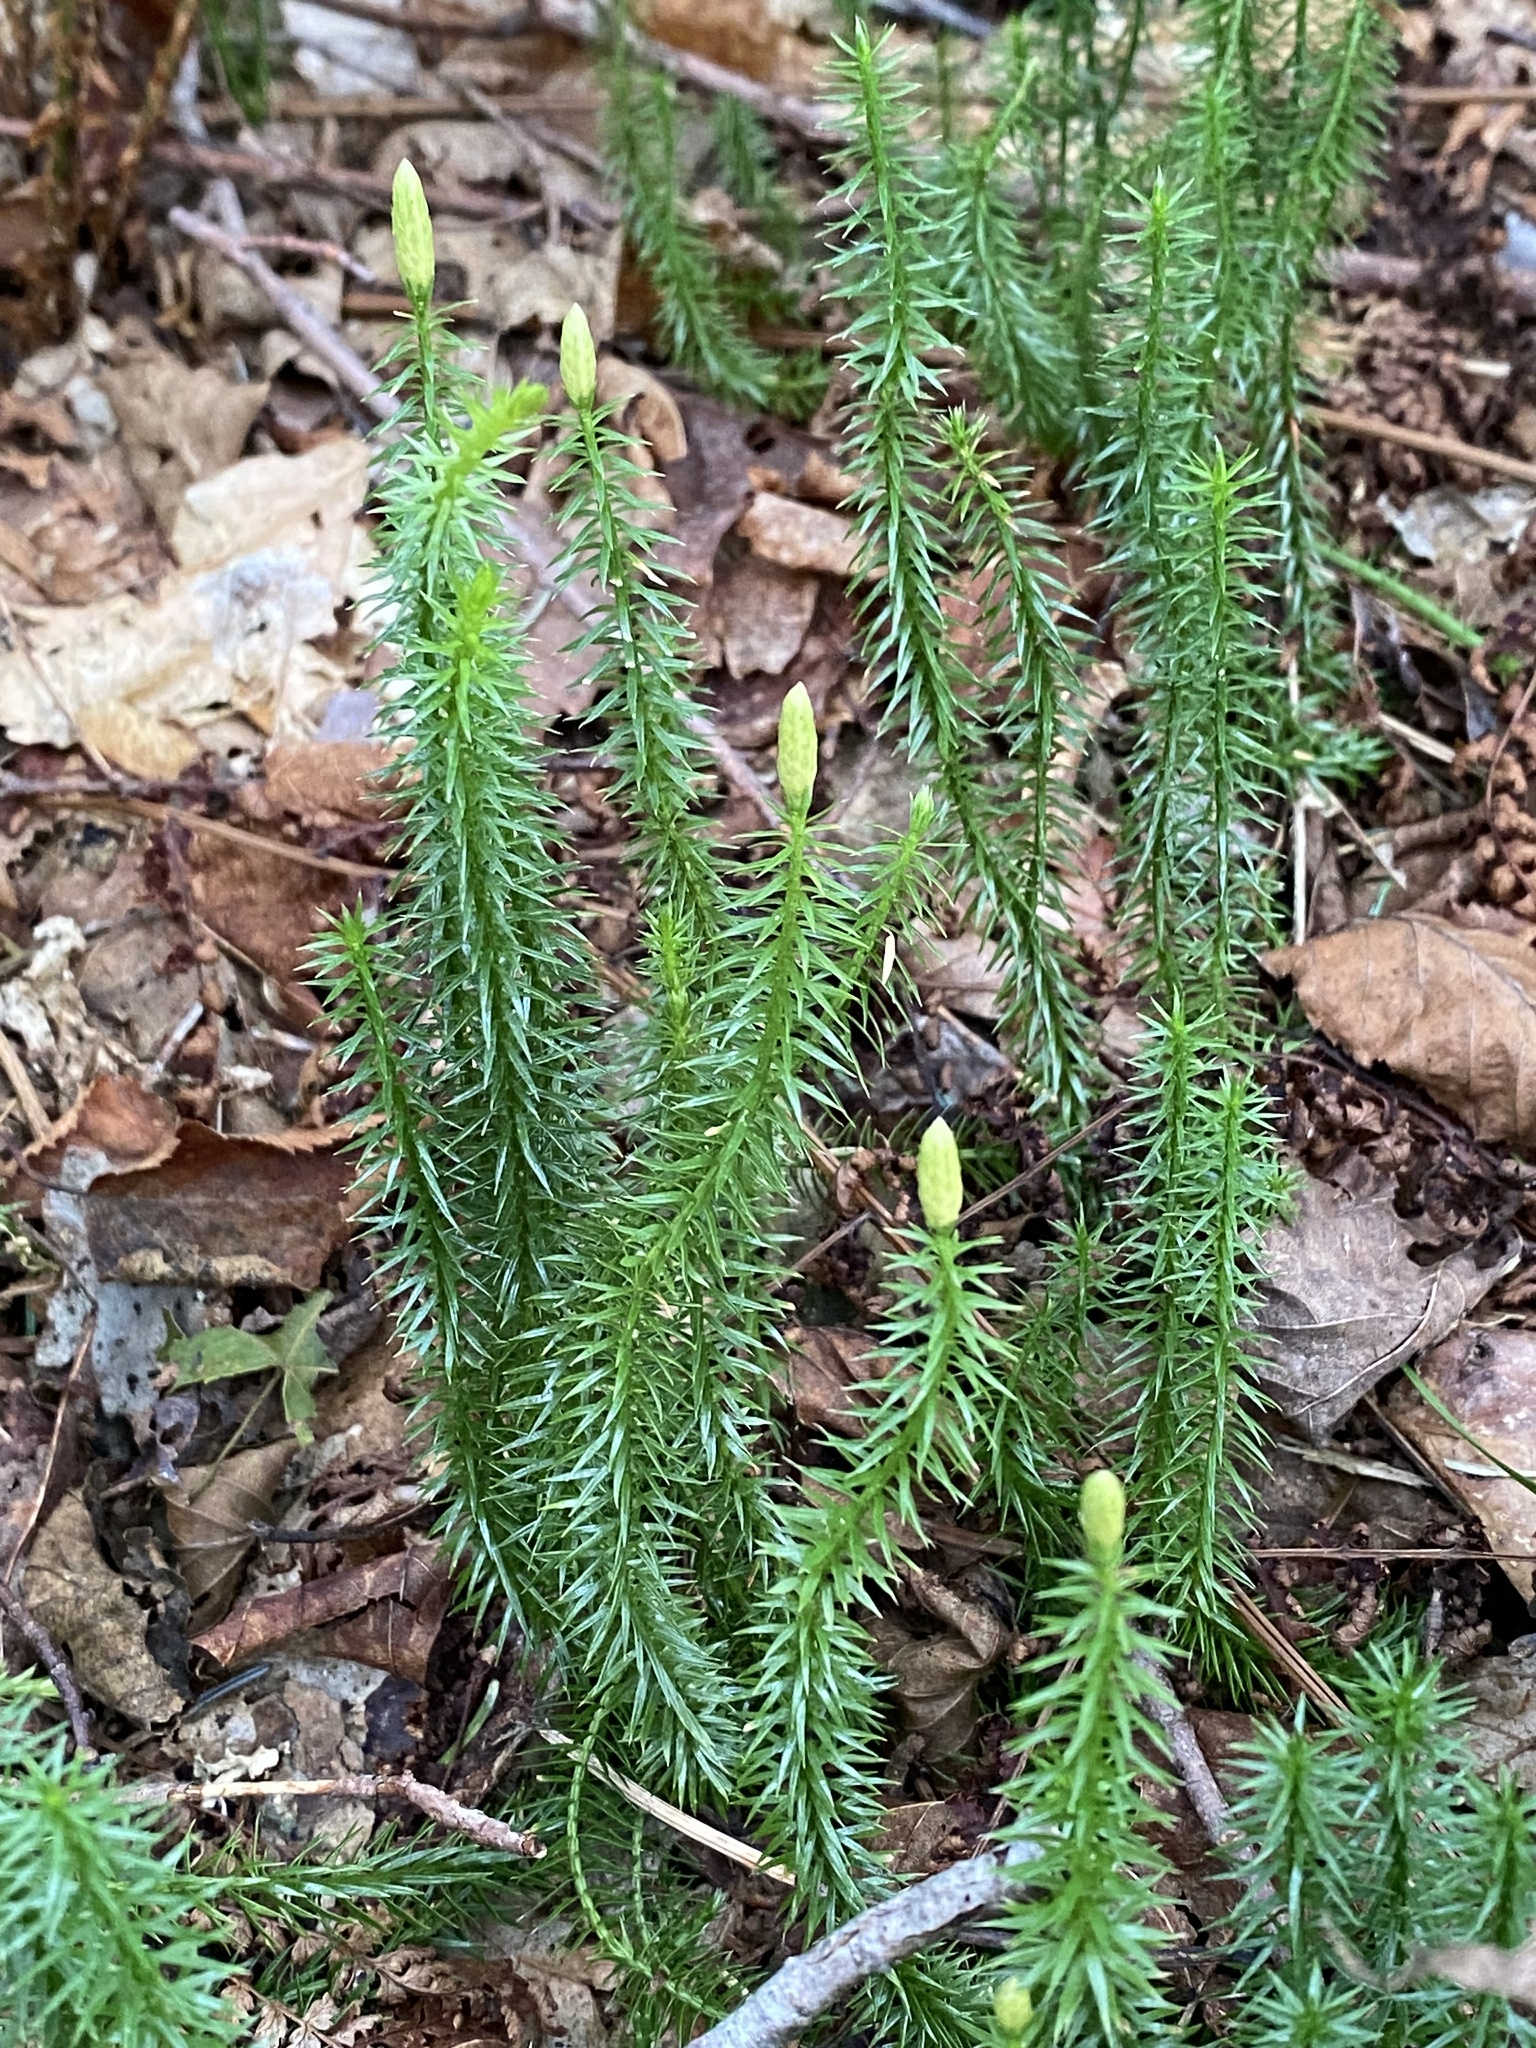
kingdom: Plantae
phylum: Tracheophyta
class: Lycopodiopsida
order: Lycopodiales
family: Lycopodiaceae
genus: Spinulum
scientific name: Spinulum annotinum
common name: Interrupted club-moss
